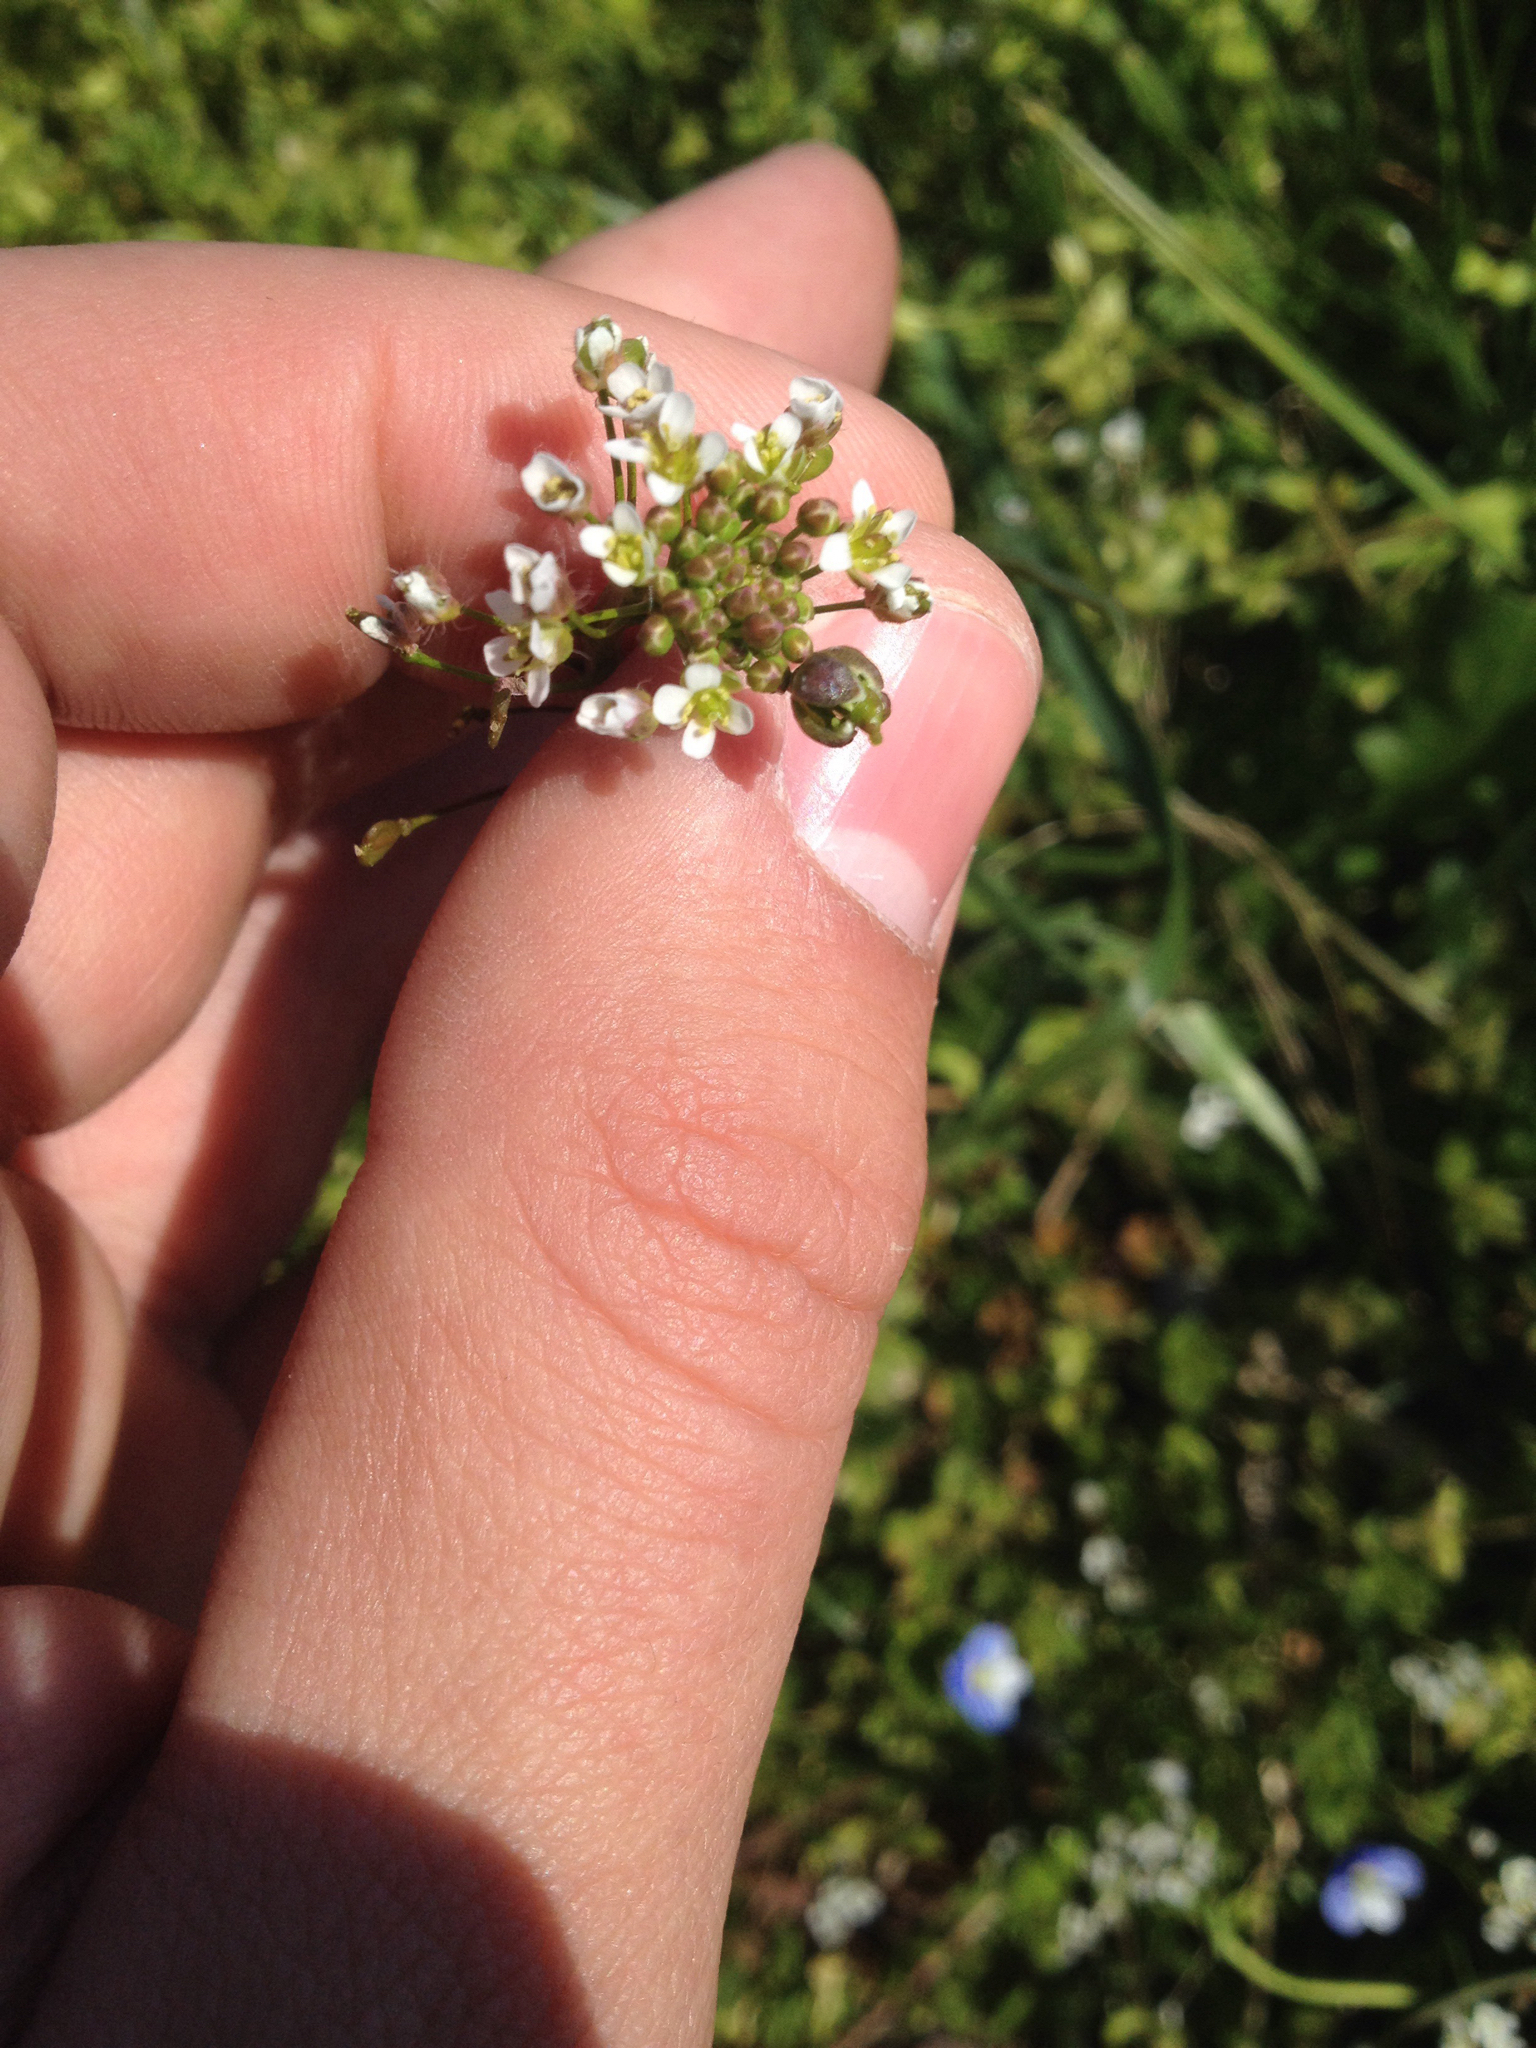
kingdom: Plantae
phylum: Tracheophyta
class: Magnoliopsida
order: Brassicales
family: Brassicaceae
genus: Capsella
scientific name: Capsella bursa-pastoris
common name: Shepherd's purse
